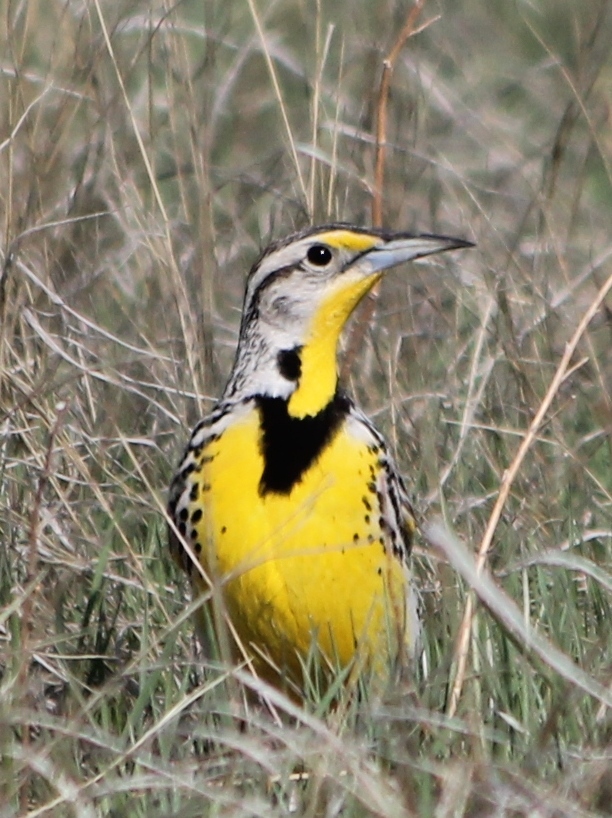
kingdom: Animalia
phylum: Chordata
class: Aves
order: Passeriformes
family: Icteridae
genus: Sturnella
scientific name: Sturnella neglecta
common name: Western meadowlark
